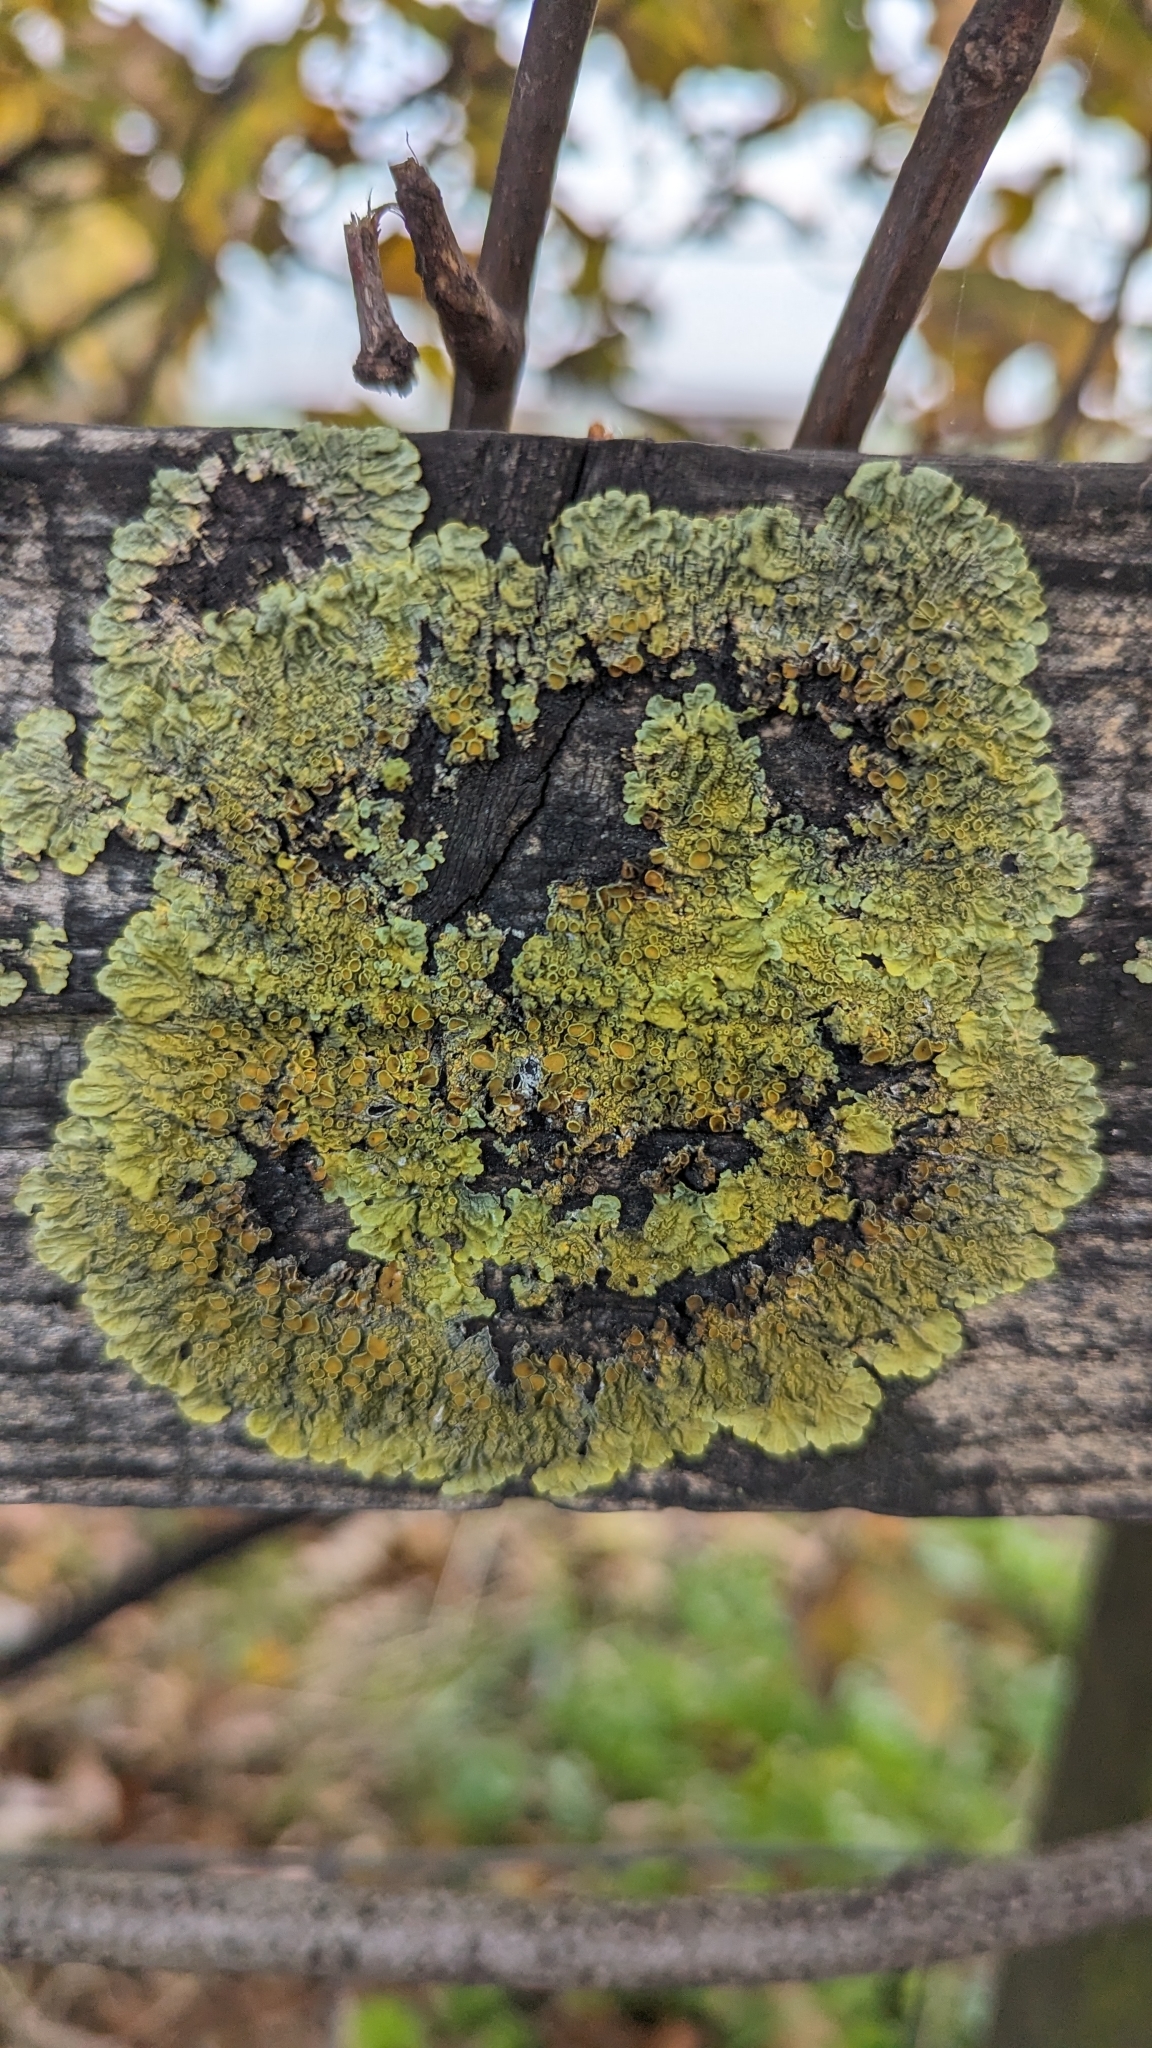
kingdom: Fungi
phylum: Ascomycota
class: Lecanoromycetes
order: Teloschistales
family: Teloschistaceae
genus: Xanthoria
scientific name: Xanthoria parietina
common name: Common orange lichen
